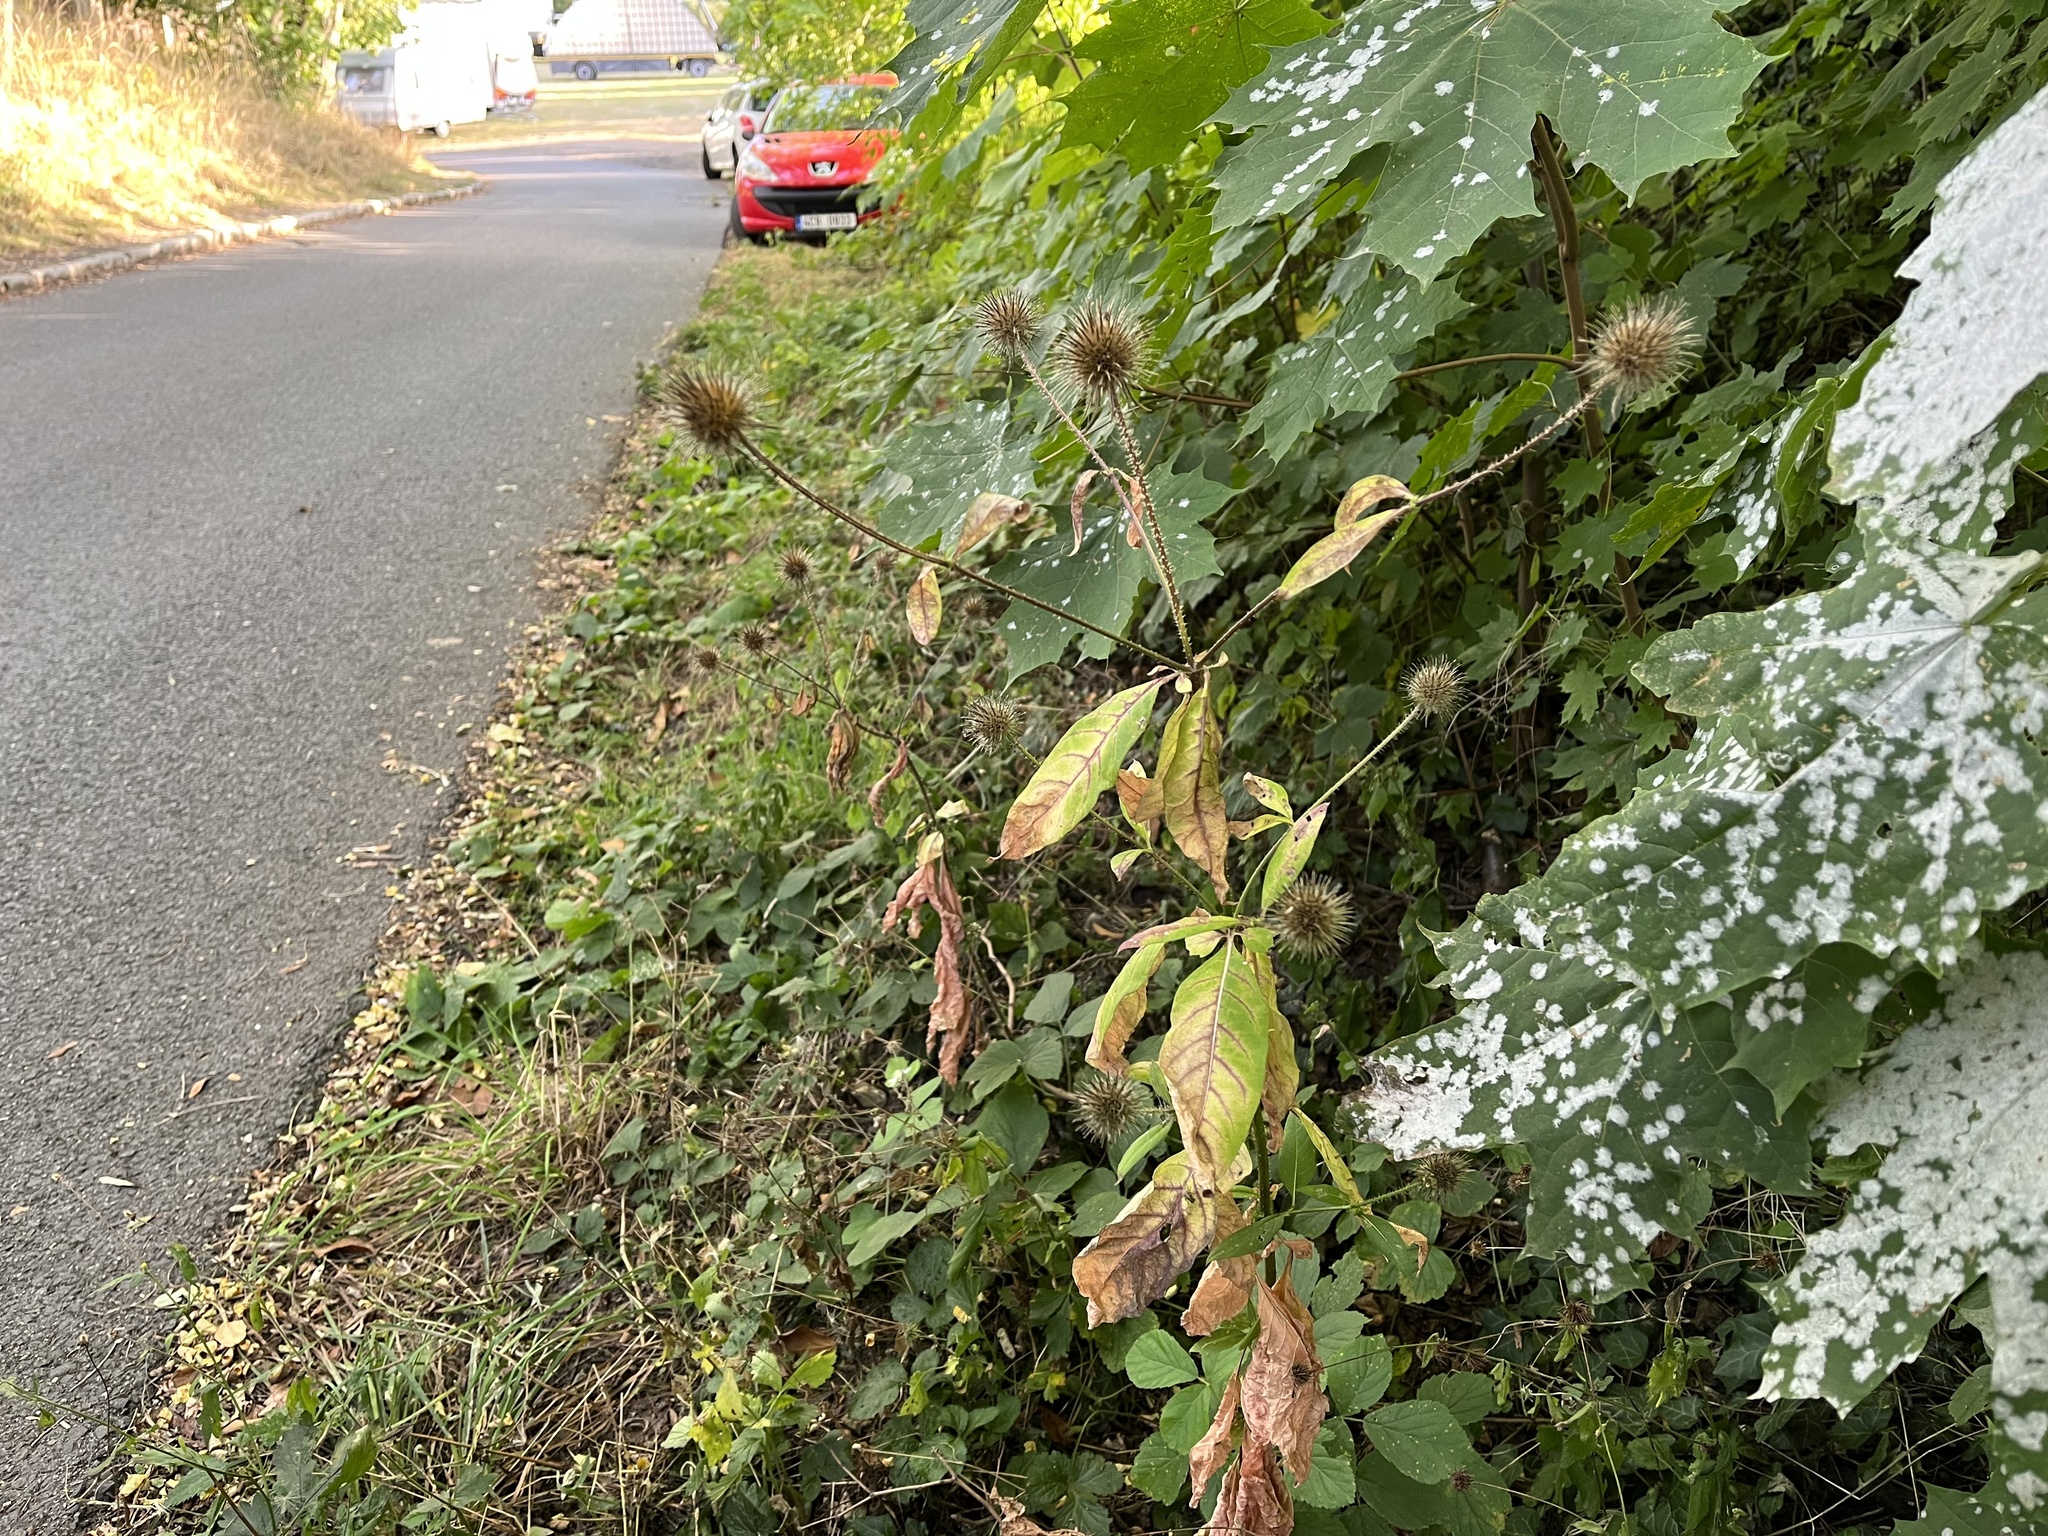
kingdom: Plantae
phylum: Tracheophyta
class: Magnoliopsida
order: Dipsacales
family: Caprifoliaceae
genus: Dipsacus
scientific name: Dipsacus strigosus
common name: Yellow-flowered teasel
